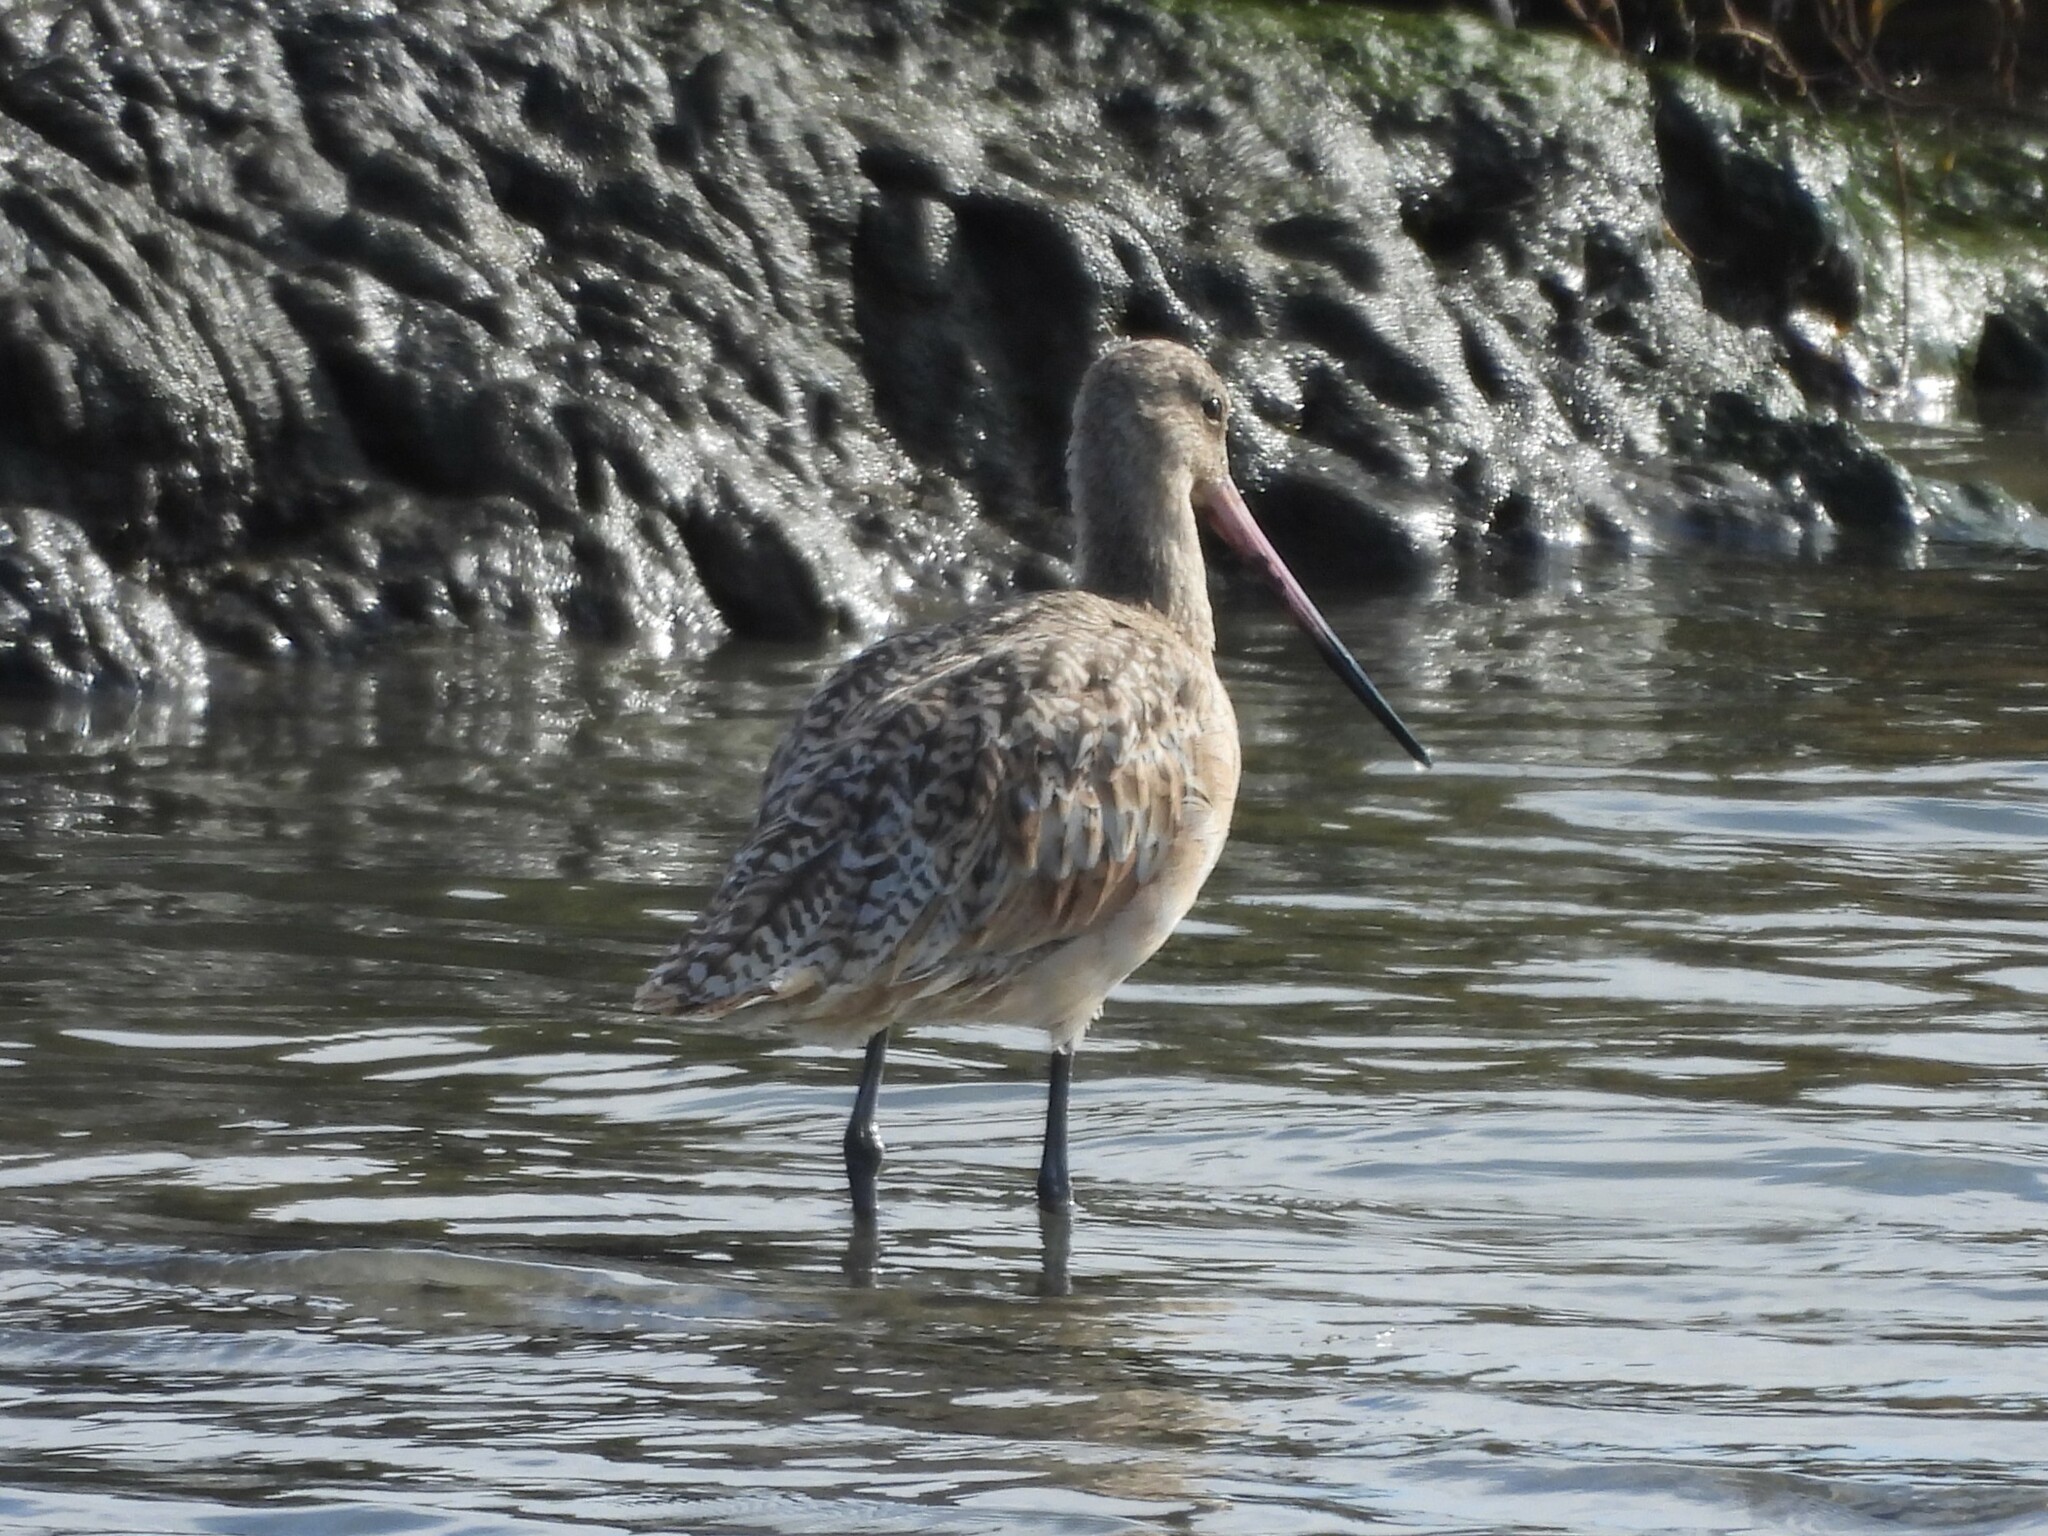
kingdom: Animalia
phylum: Chordata
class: Aves
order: Charadriiformes
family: Scolopacidae
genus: Limosa
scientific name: Limosa fedoa
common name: Marbled godwit
